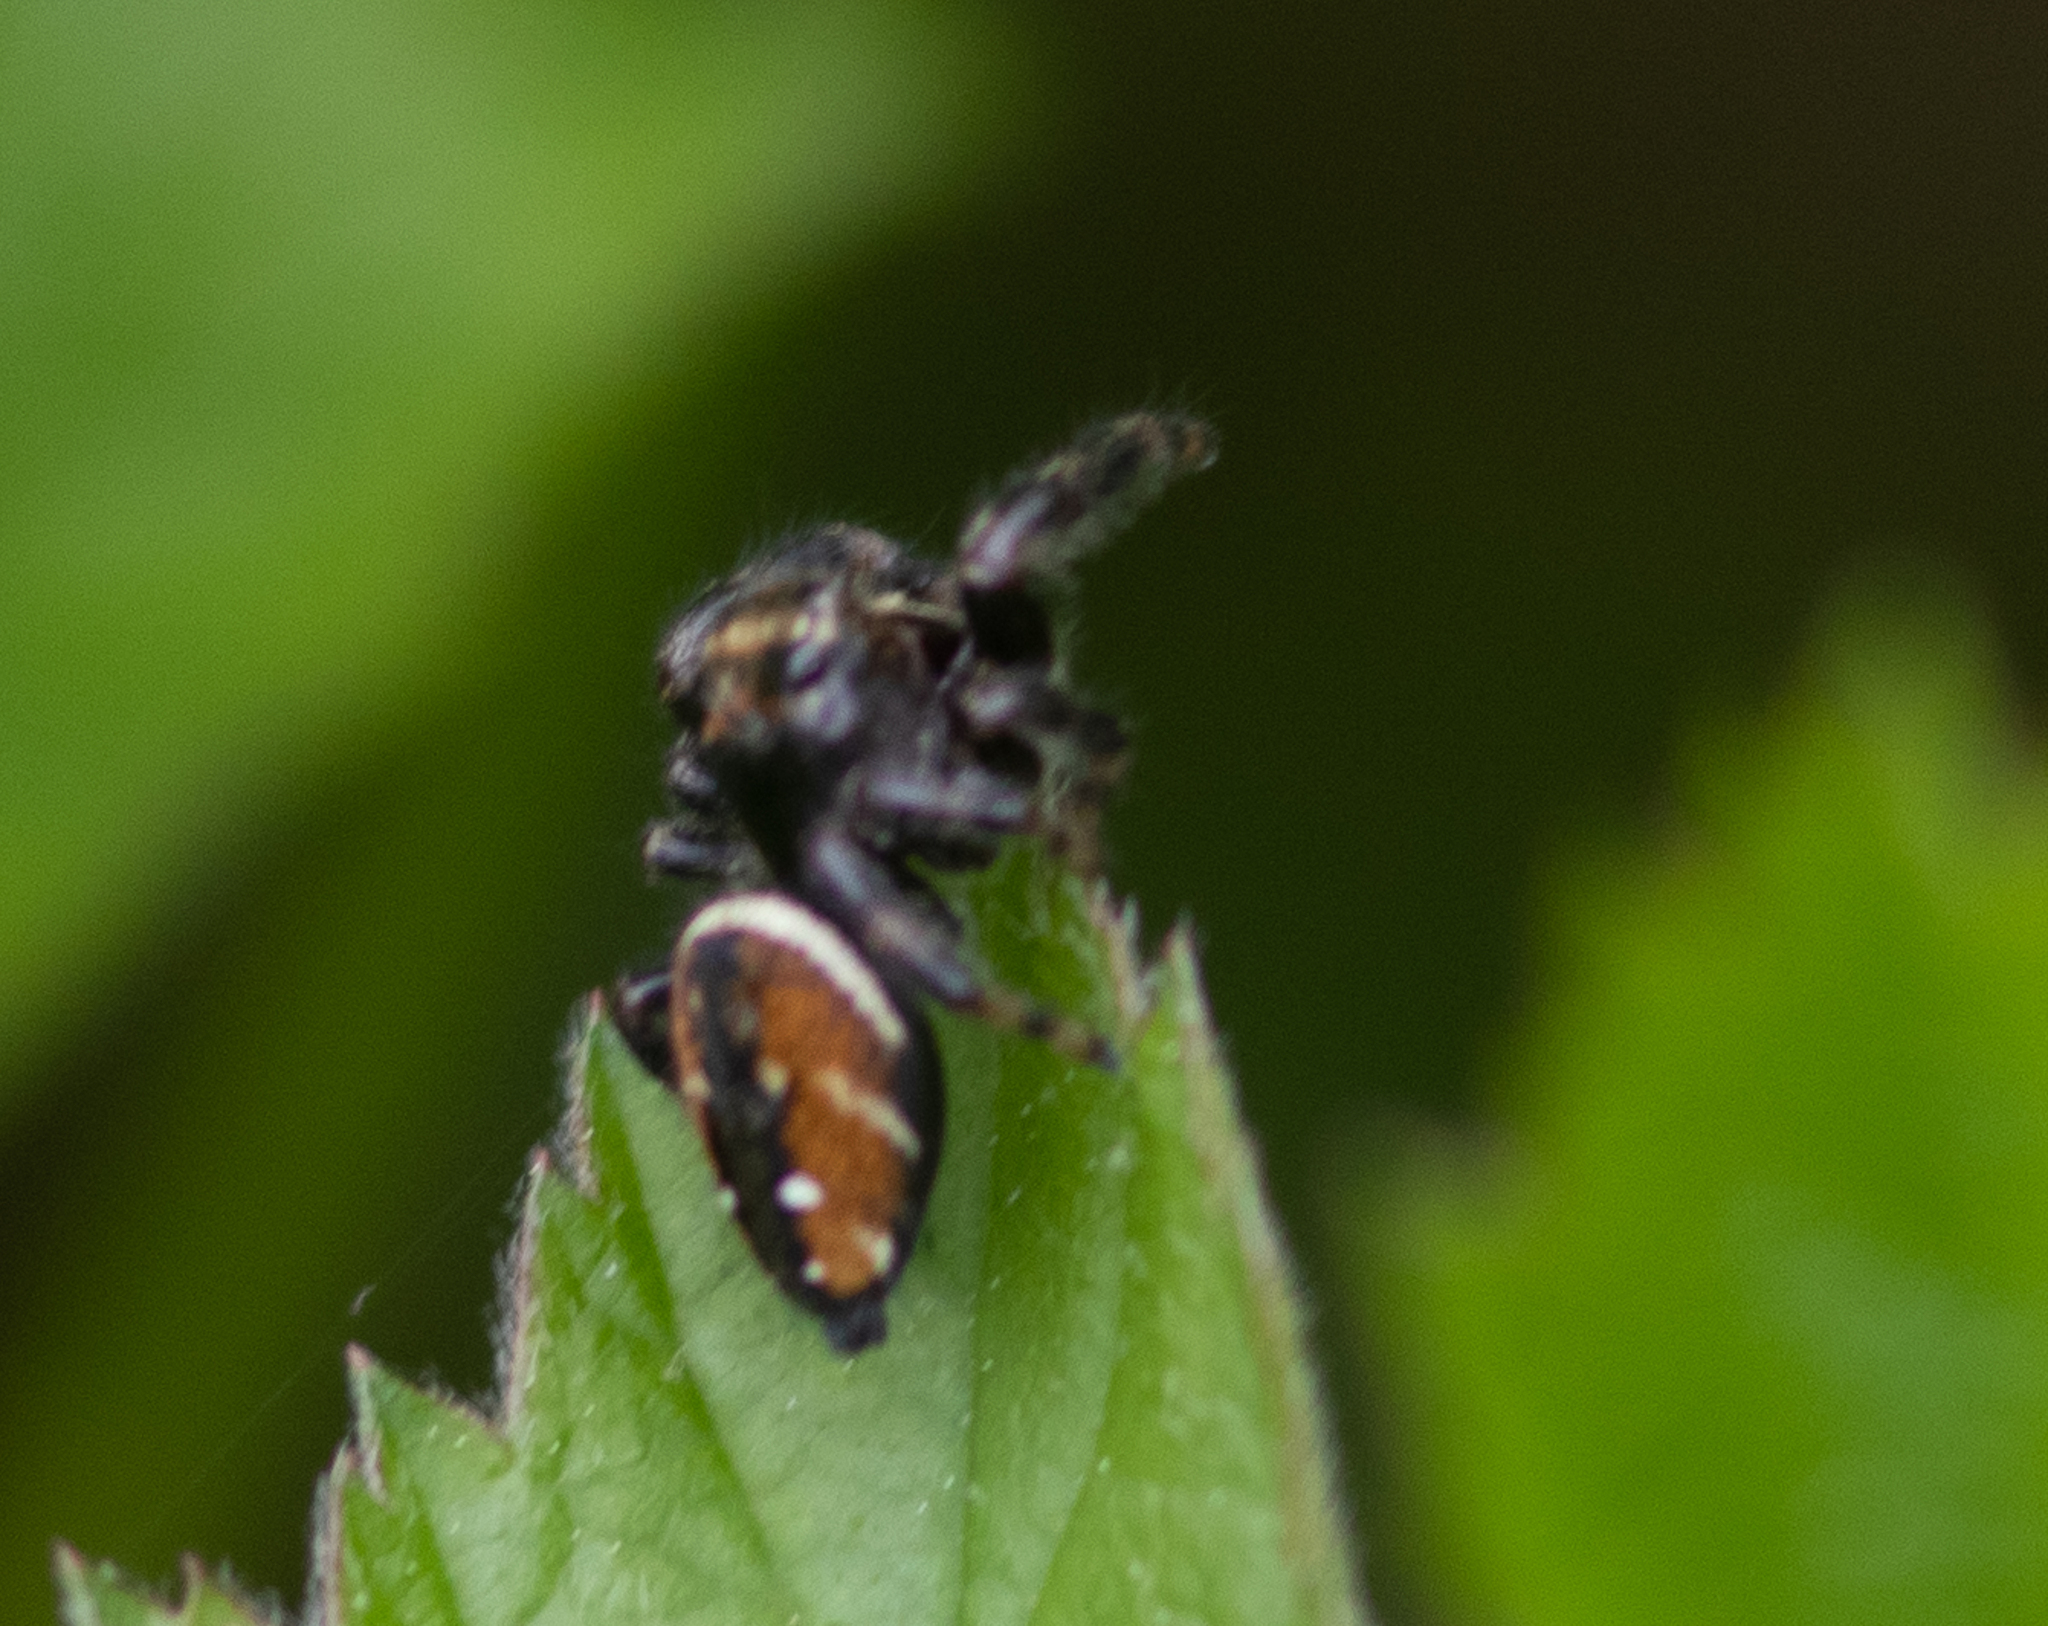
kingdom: Animalia
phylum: Arthropoda
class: Arachnida
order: Araneae
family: Salticidae
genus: Phidippus
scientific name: Phidippus clarus
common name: Brilliant jumping spider
